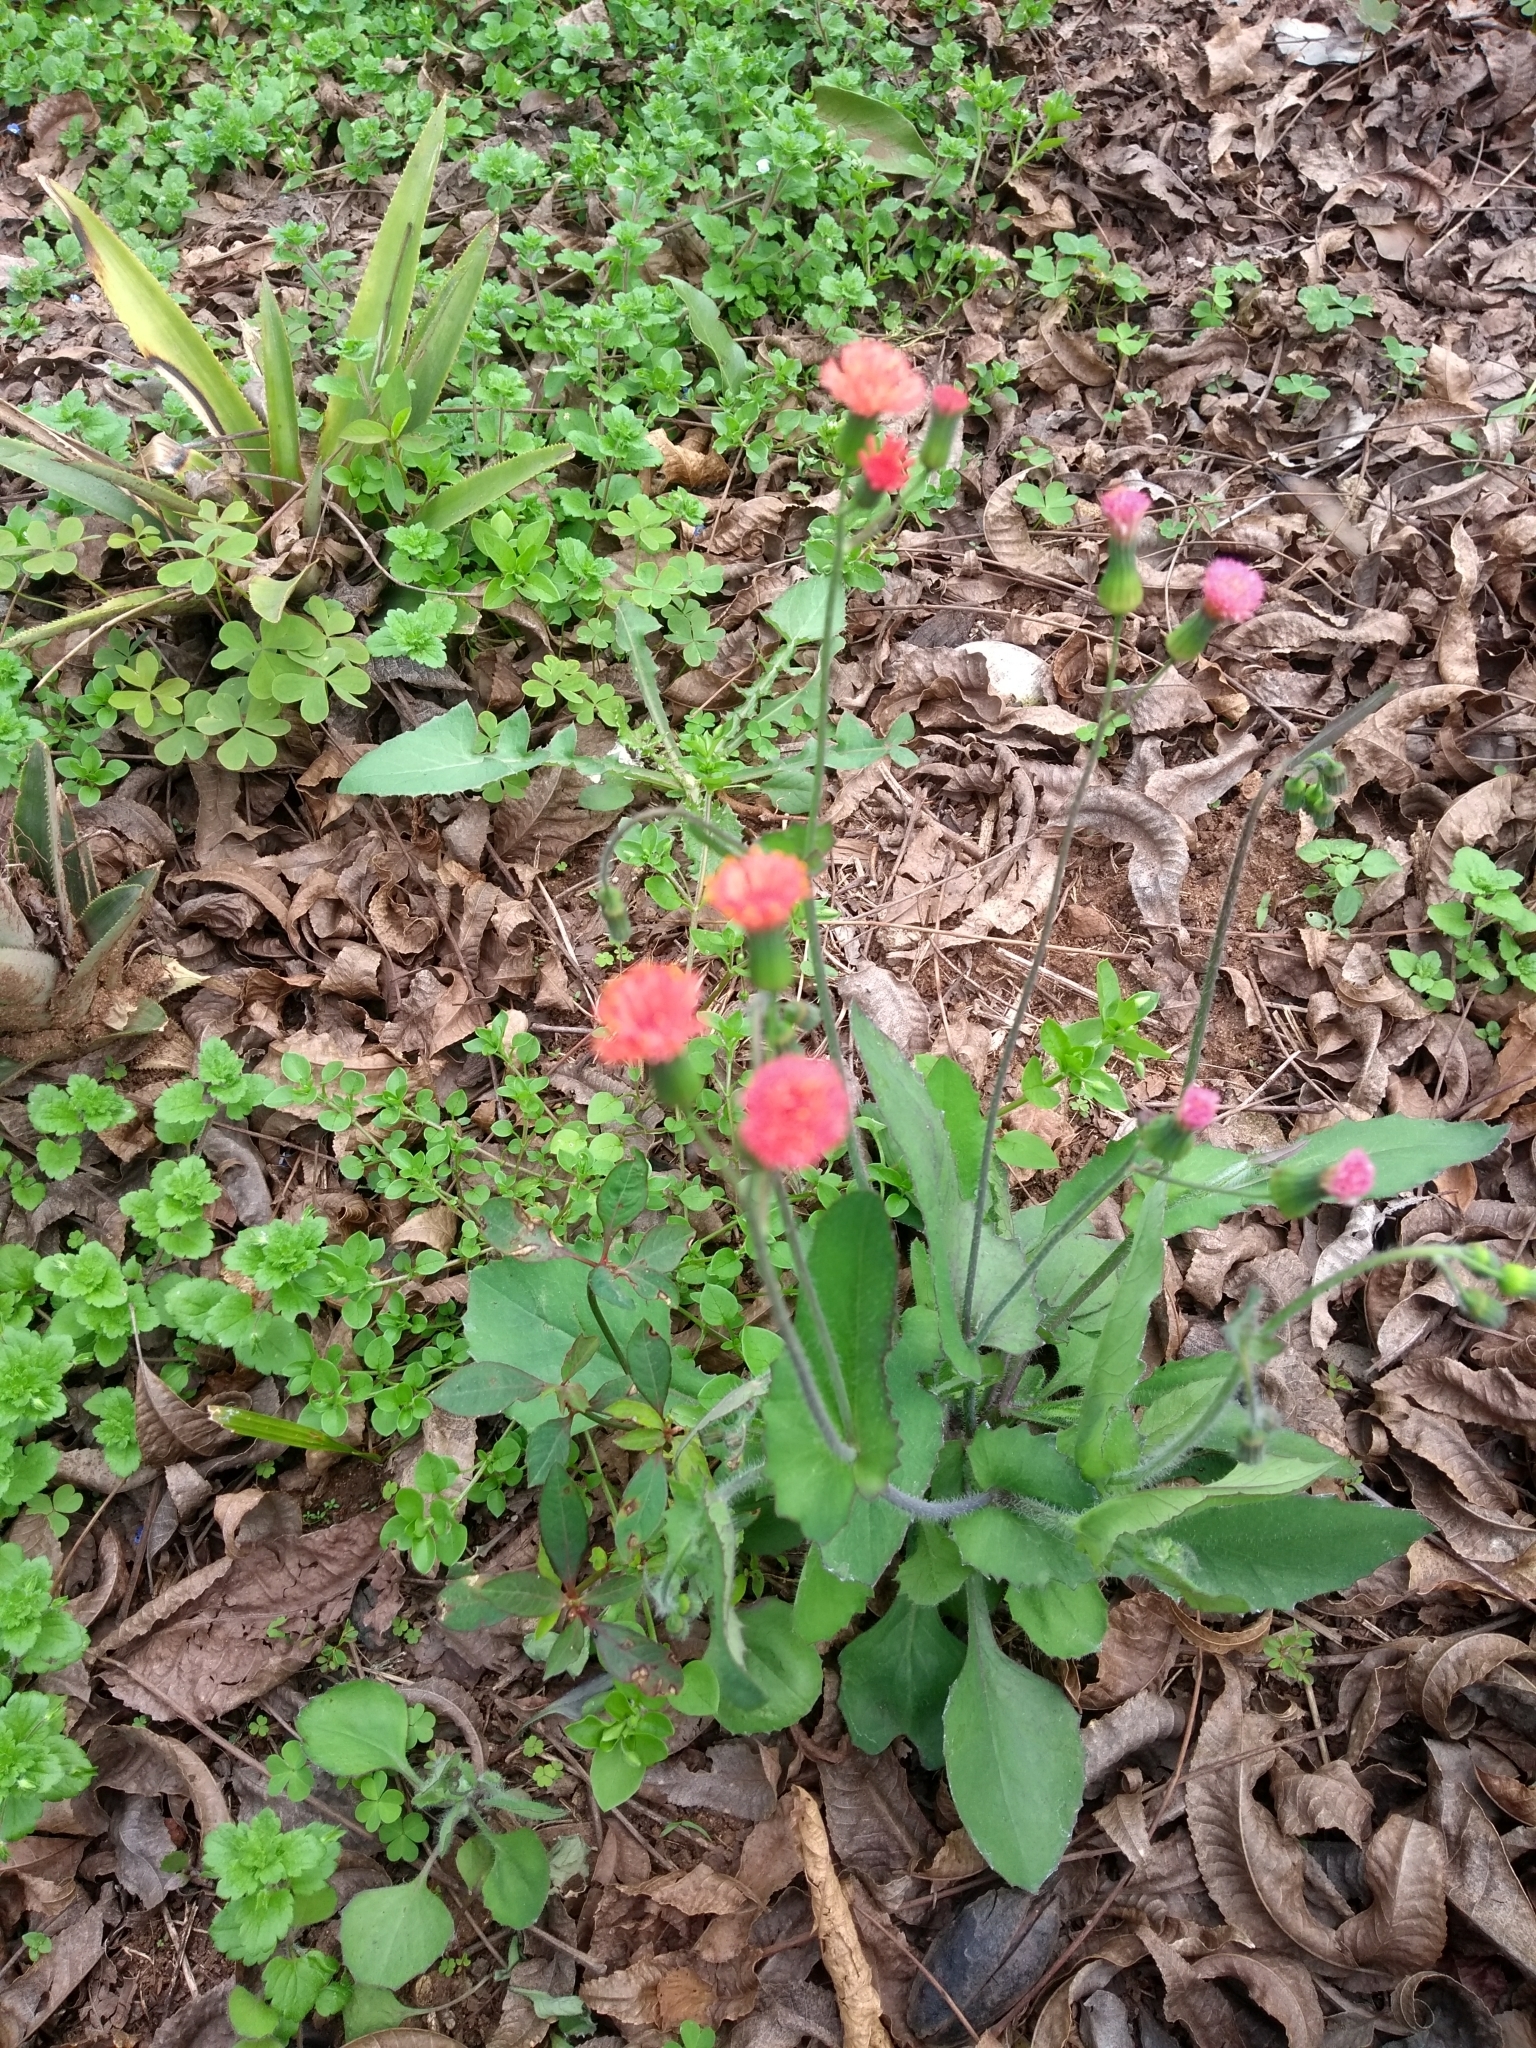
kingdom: Plantae
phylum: Tracheophyta
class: Magnoliopsida
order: Asterales
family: Asteraceae
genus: Emilia
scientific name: Emilia fosbergii
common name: Florida tasselflower
